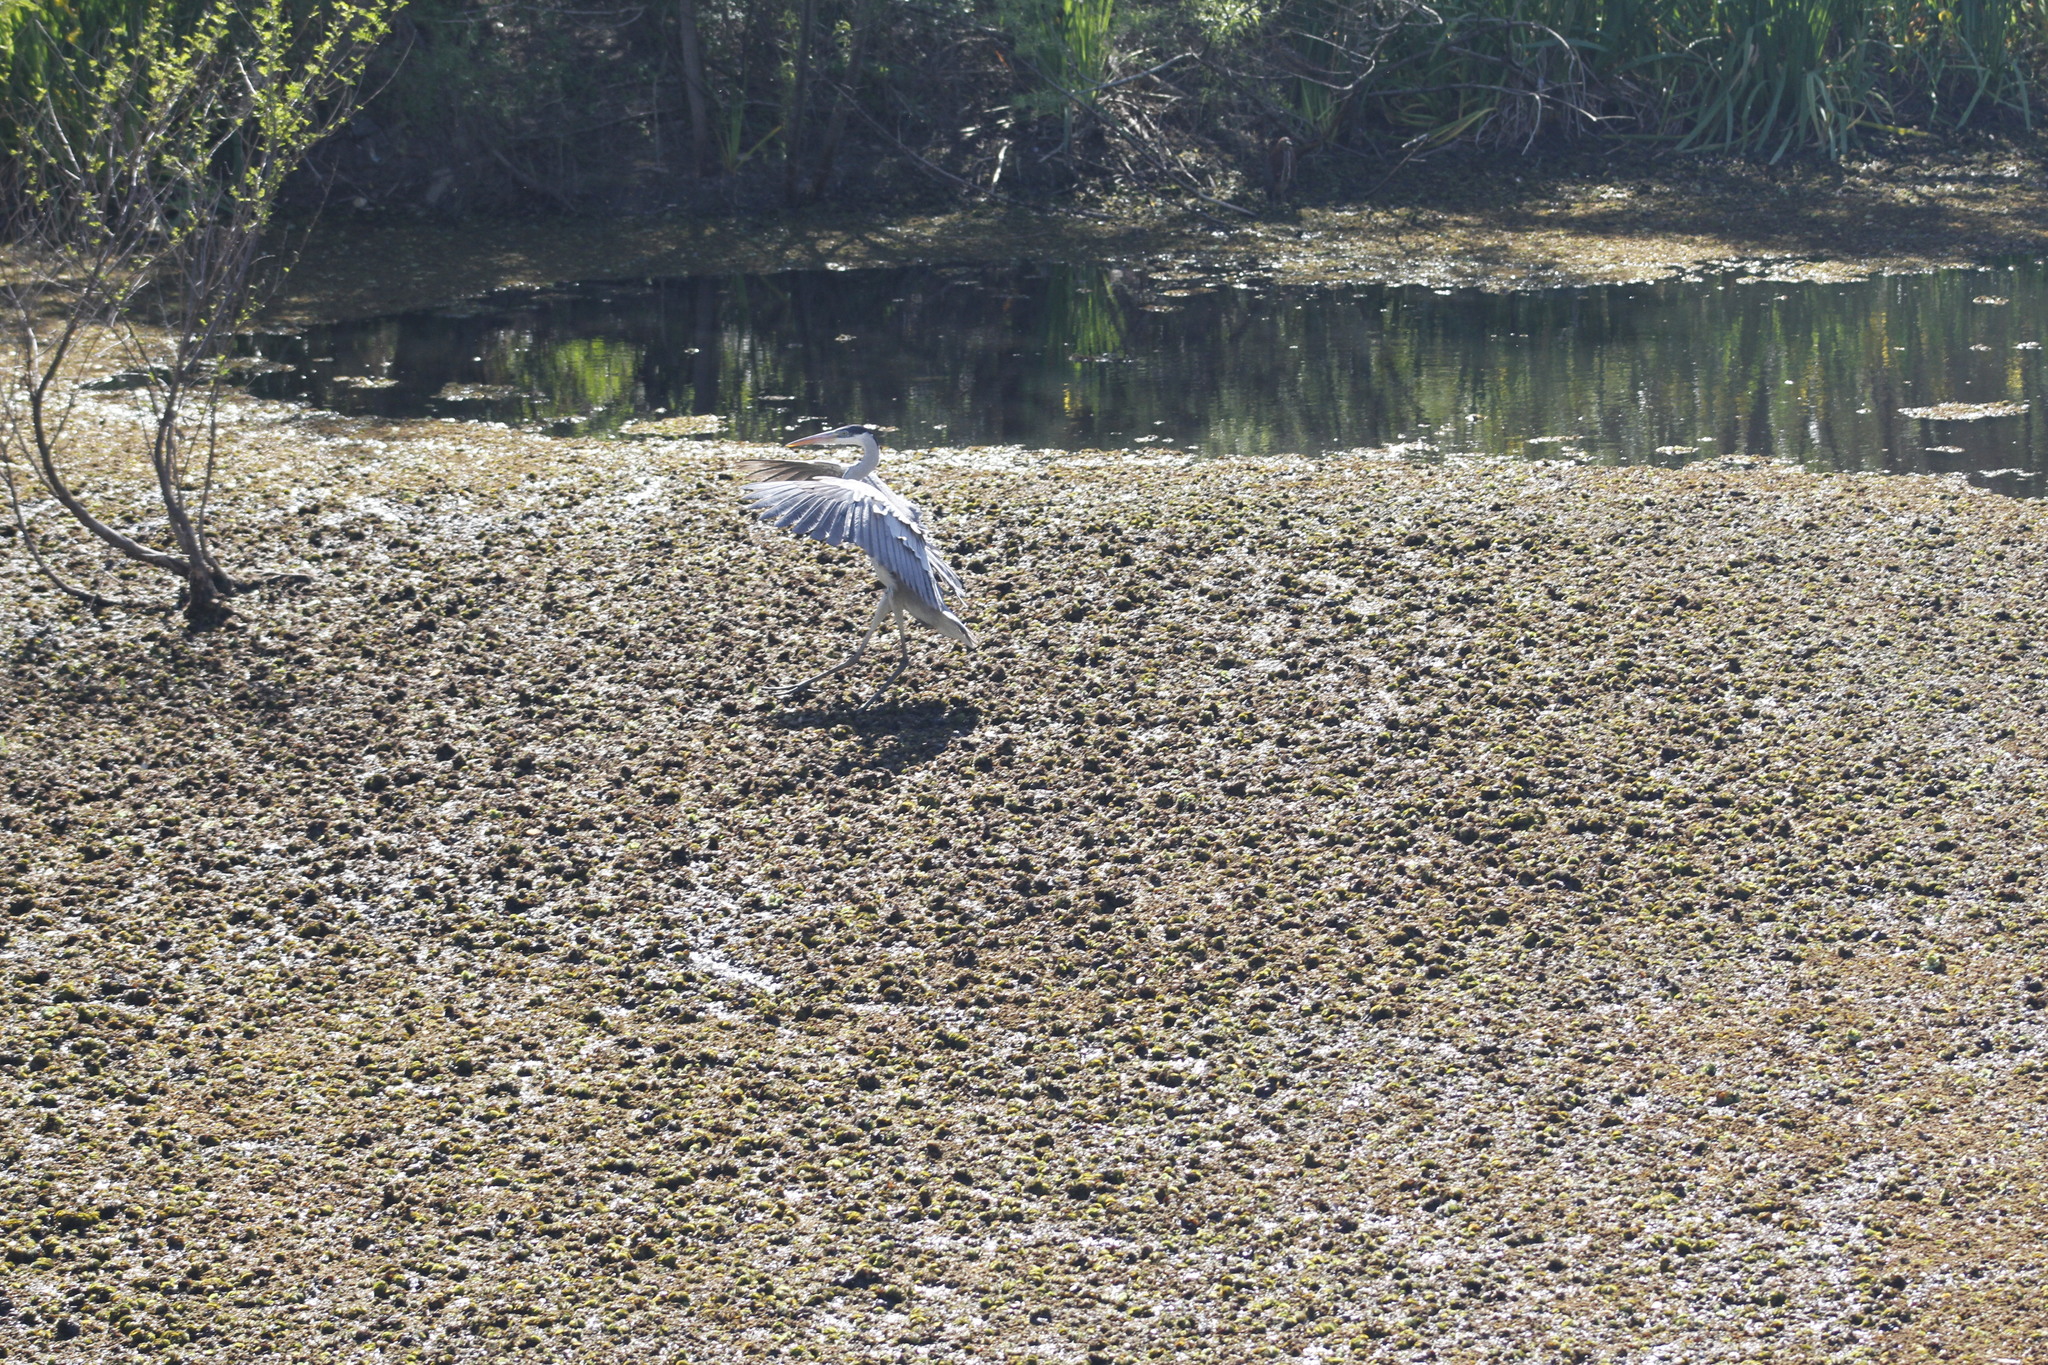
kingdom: Animalia
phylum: Chordata
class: Aves
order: Pelecaniformes
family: Ardeidae
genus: Ardea
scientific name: Ardea cocoi
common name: Cocoi heron
